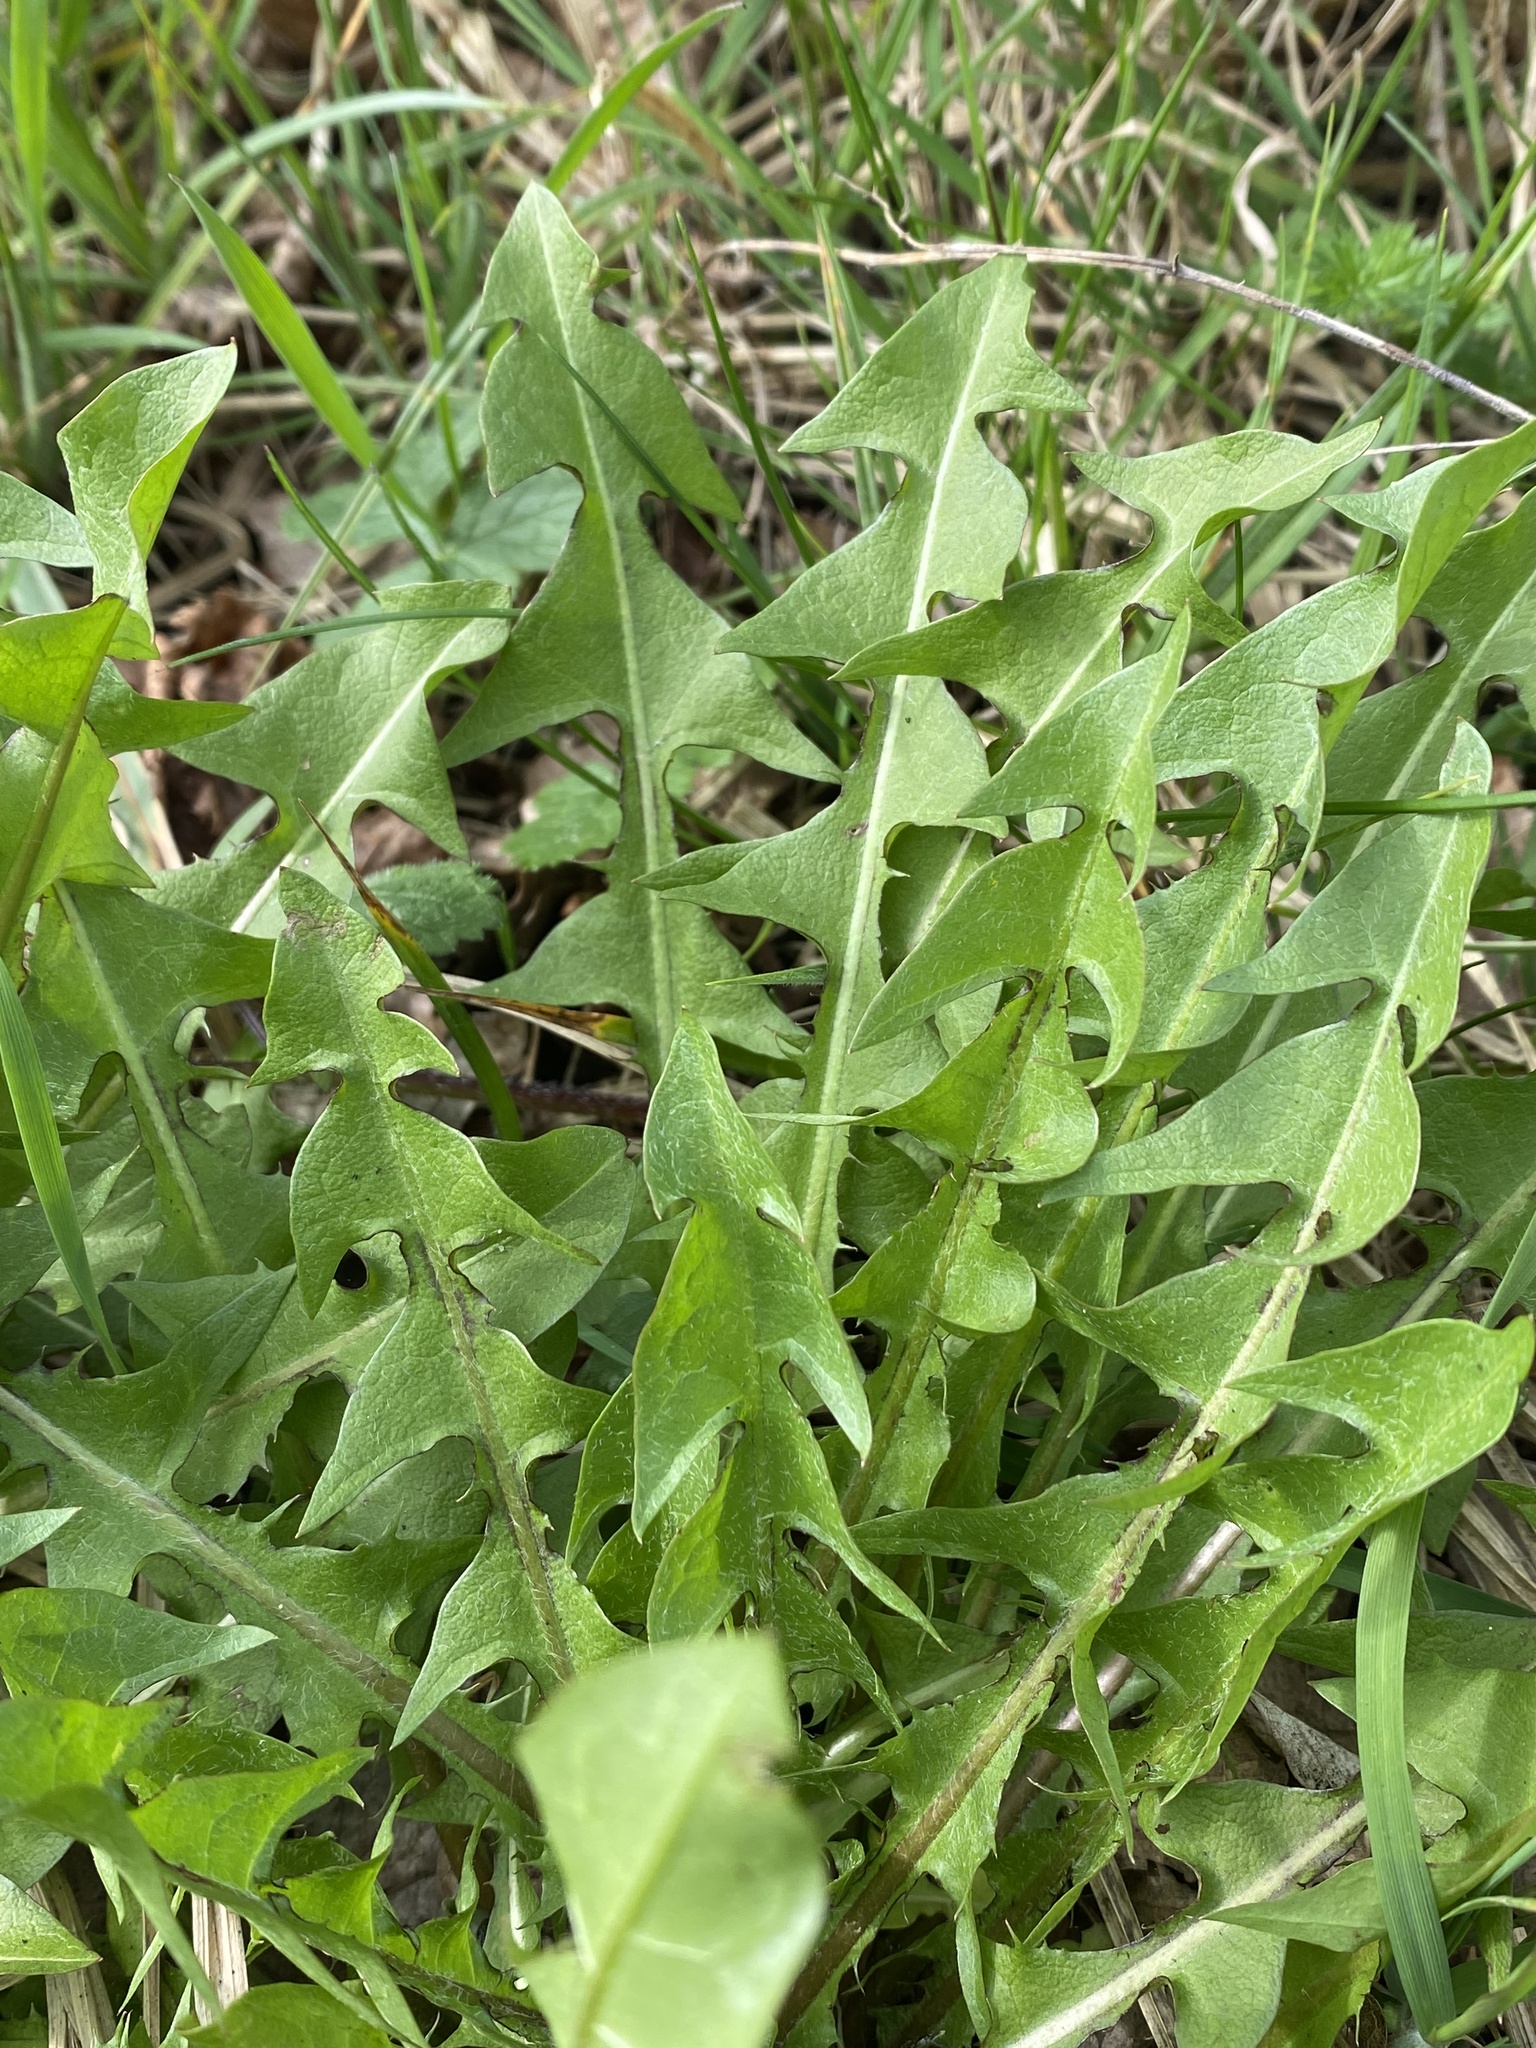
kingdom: Plantae
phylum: Tracheophyta
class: Magnoliopsida
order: Asterales
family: Asteraceae
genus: Taraxacum
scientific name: Taraxacum officinale
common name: Common dandelion
